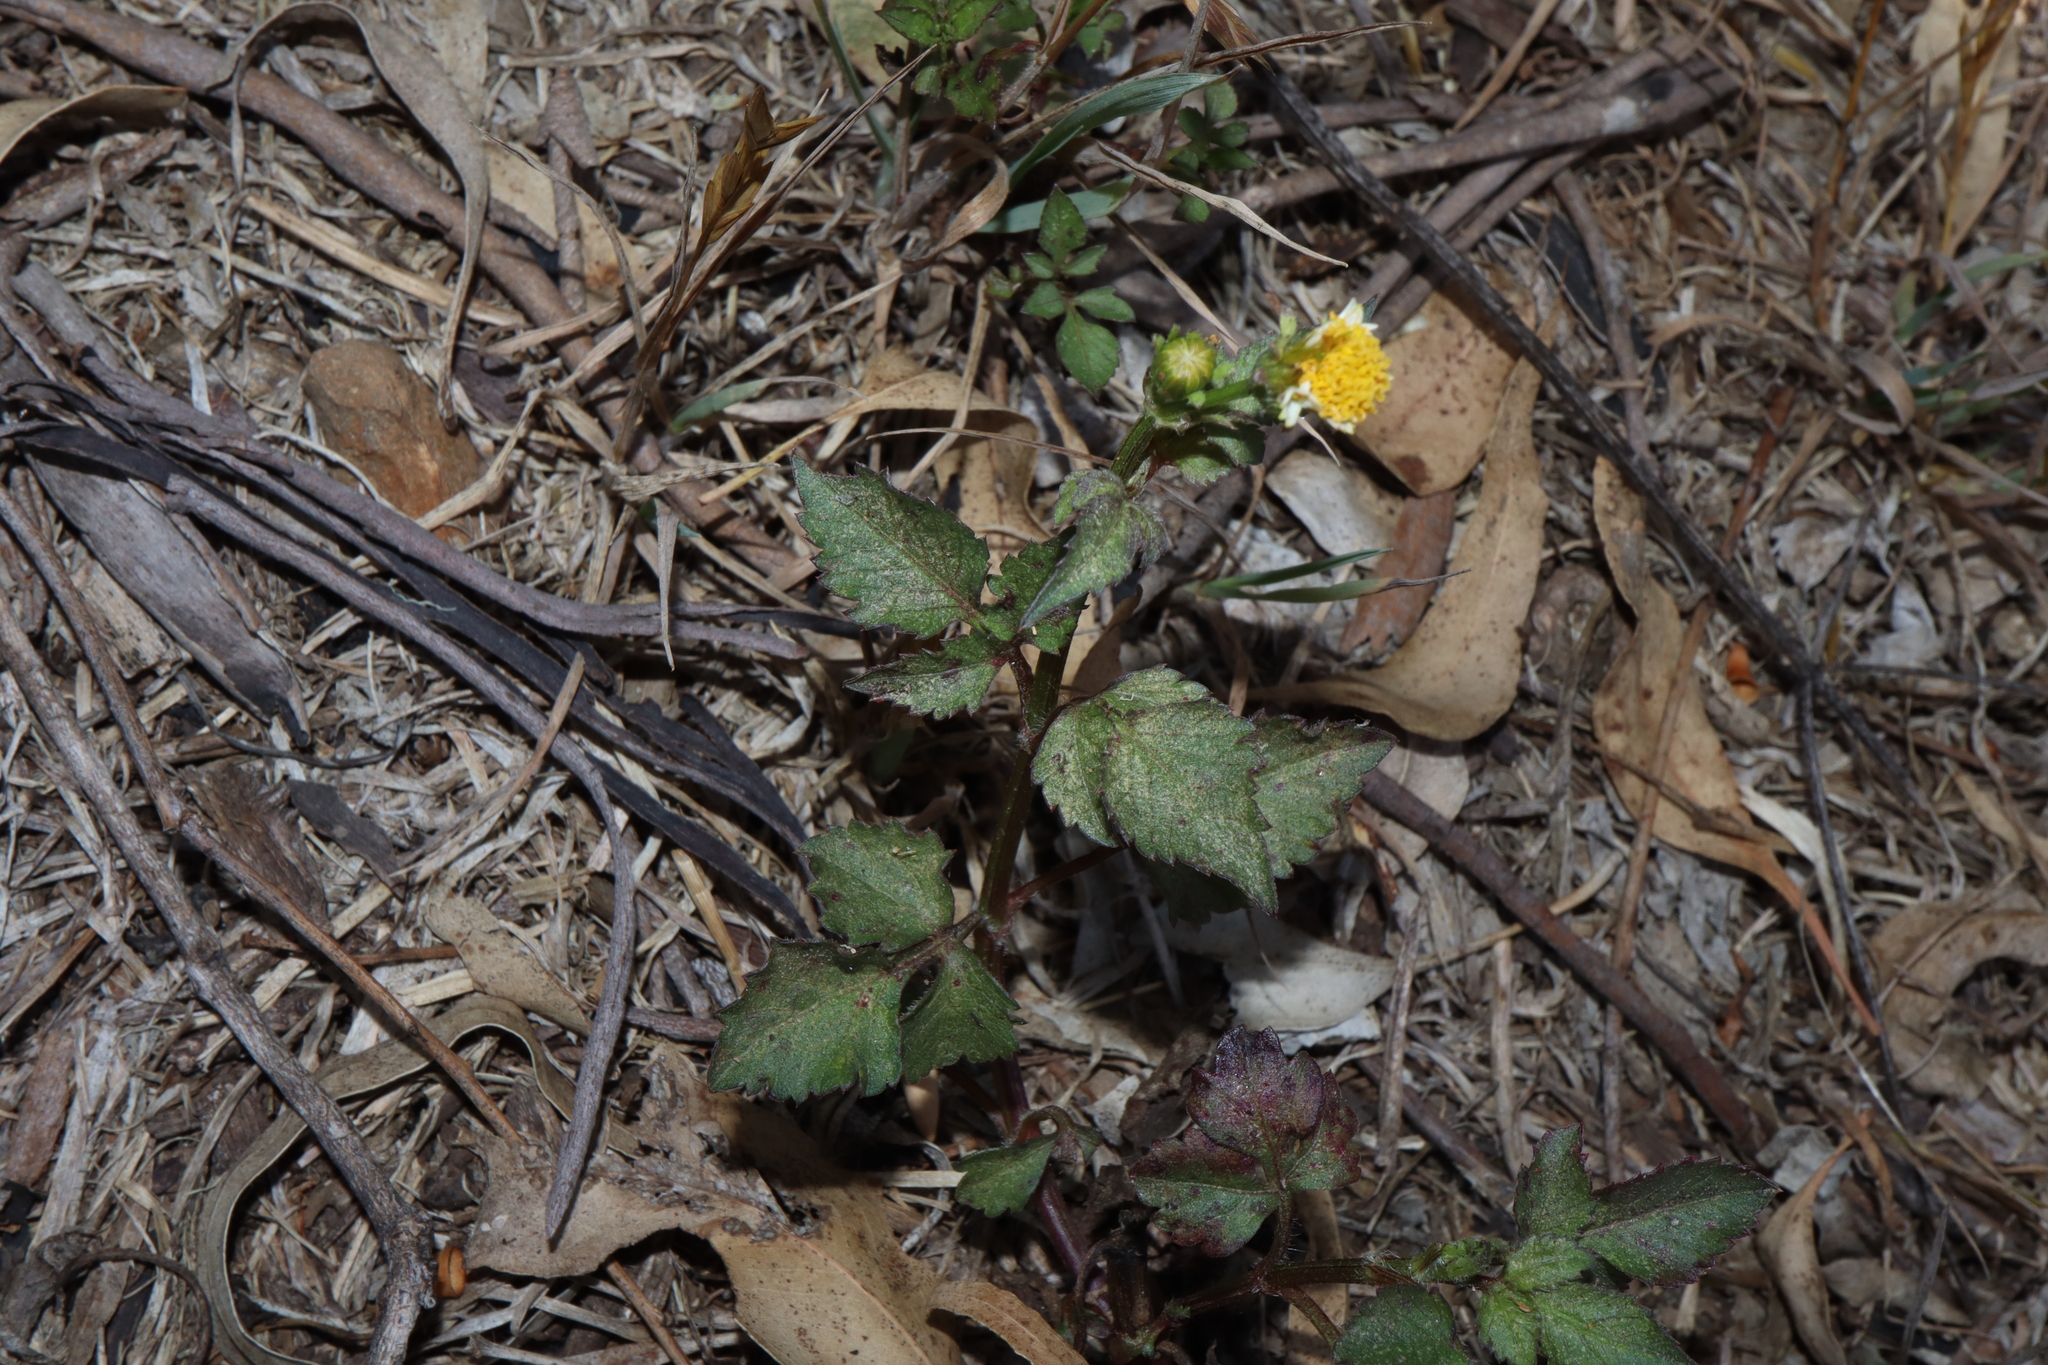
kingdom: Plantae
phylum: Tracheophyta
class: Magnoliopsida
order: Asterales
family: Asteraceae
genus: Bidens
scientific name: Bidens pilosa
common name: Black-jack
